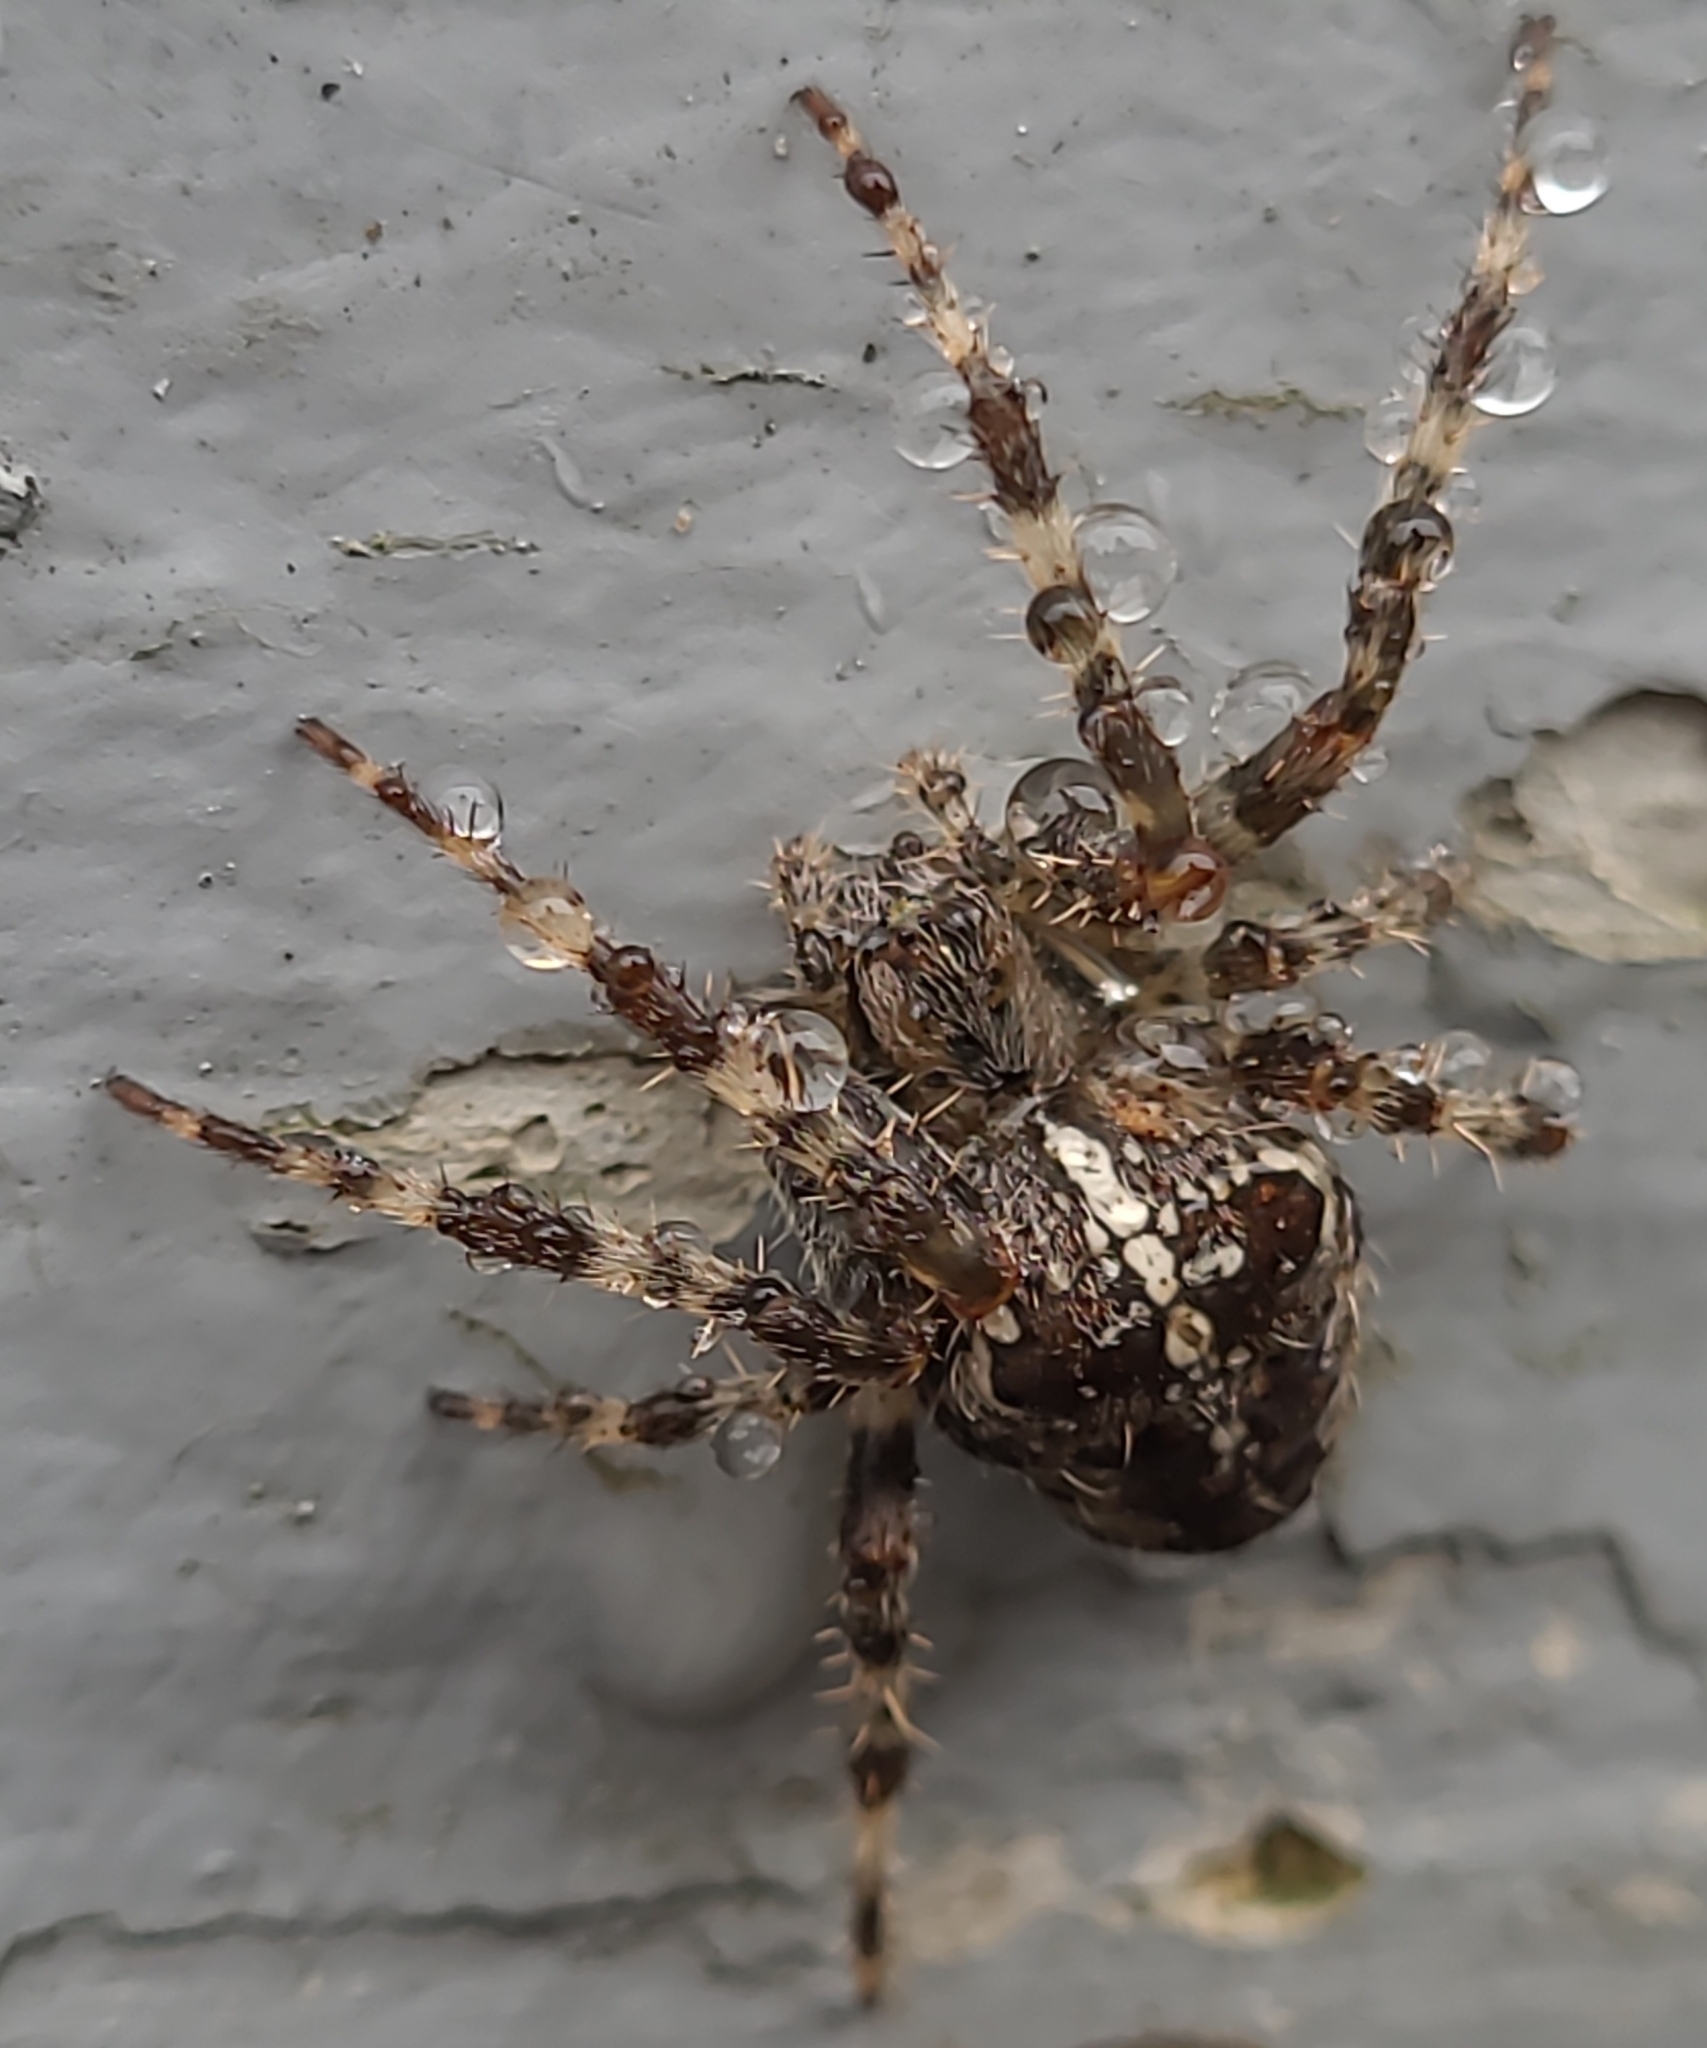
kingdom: Animalia
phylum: Arthropoda
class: Arachnida
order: Araneae
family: Araneidae
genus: Araneus
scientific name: Araneus diadematus
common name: Cross orbweaver
